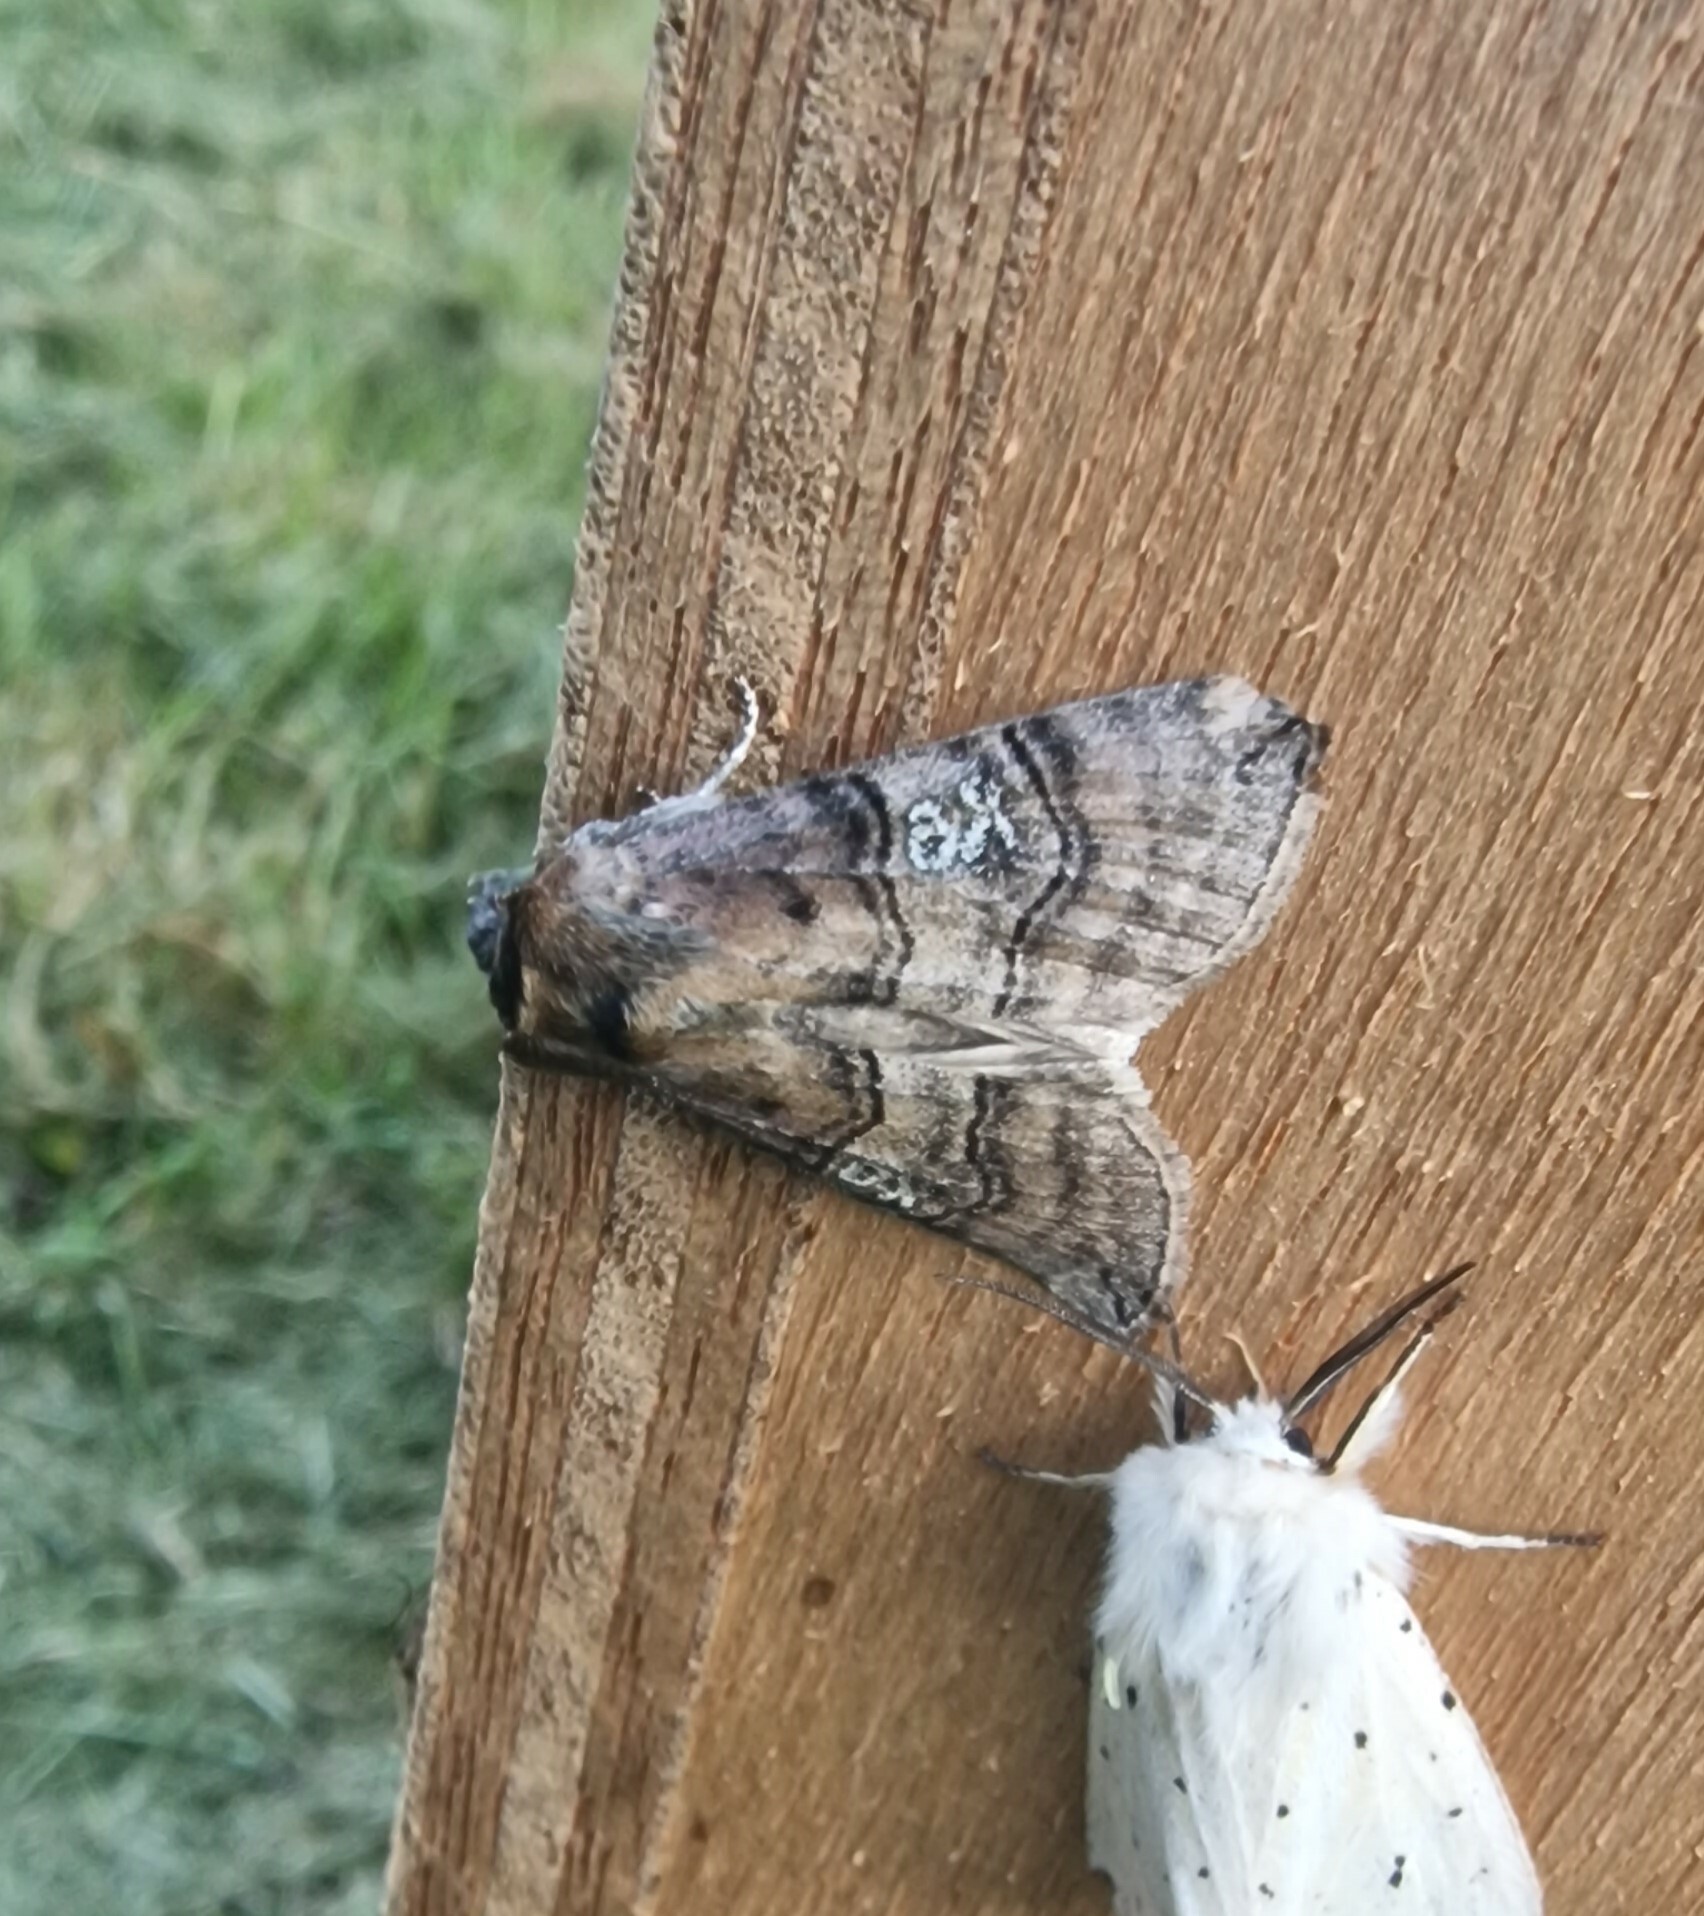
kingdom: Animalia
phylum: Arthropoda
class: Insecta
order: Lepidoptera
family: Drepanidae
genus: Tethea
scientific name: Tethea ocularis
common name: Figure of eighty
